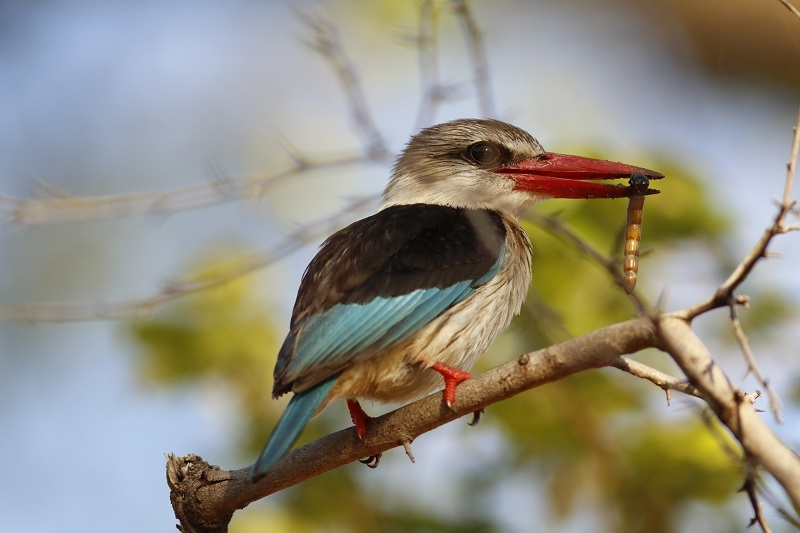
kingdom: Animalia
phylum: Chordata
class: Aves
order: Coraciiformes
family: Alcedinidae
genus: Halcyon
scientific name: Halcyon albiventris
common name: Brown-hooded kingfisher
